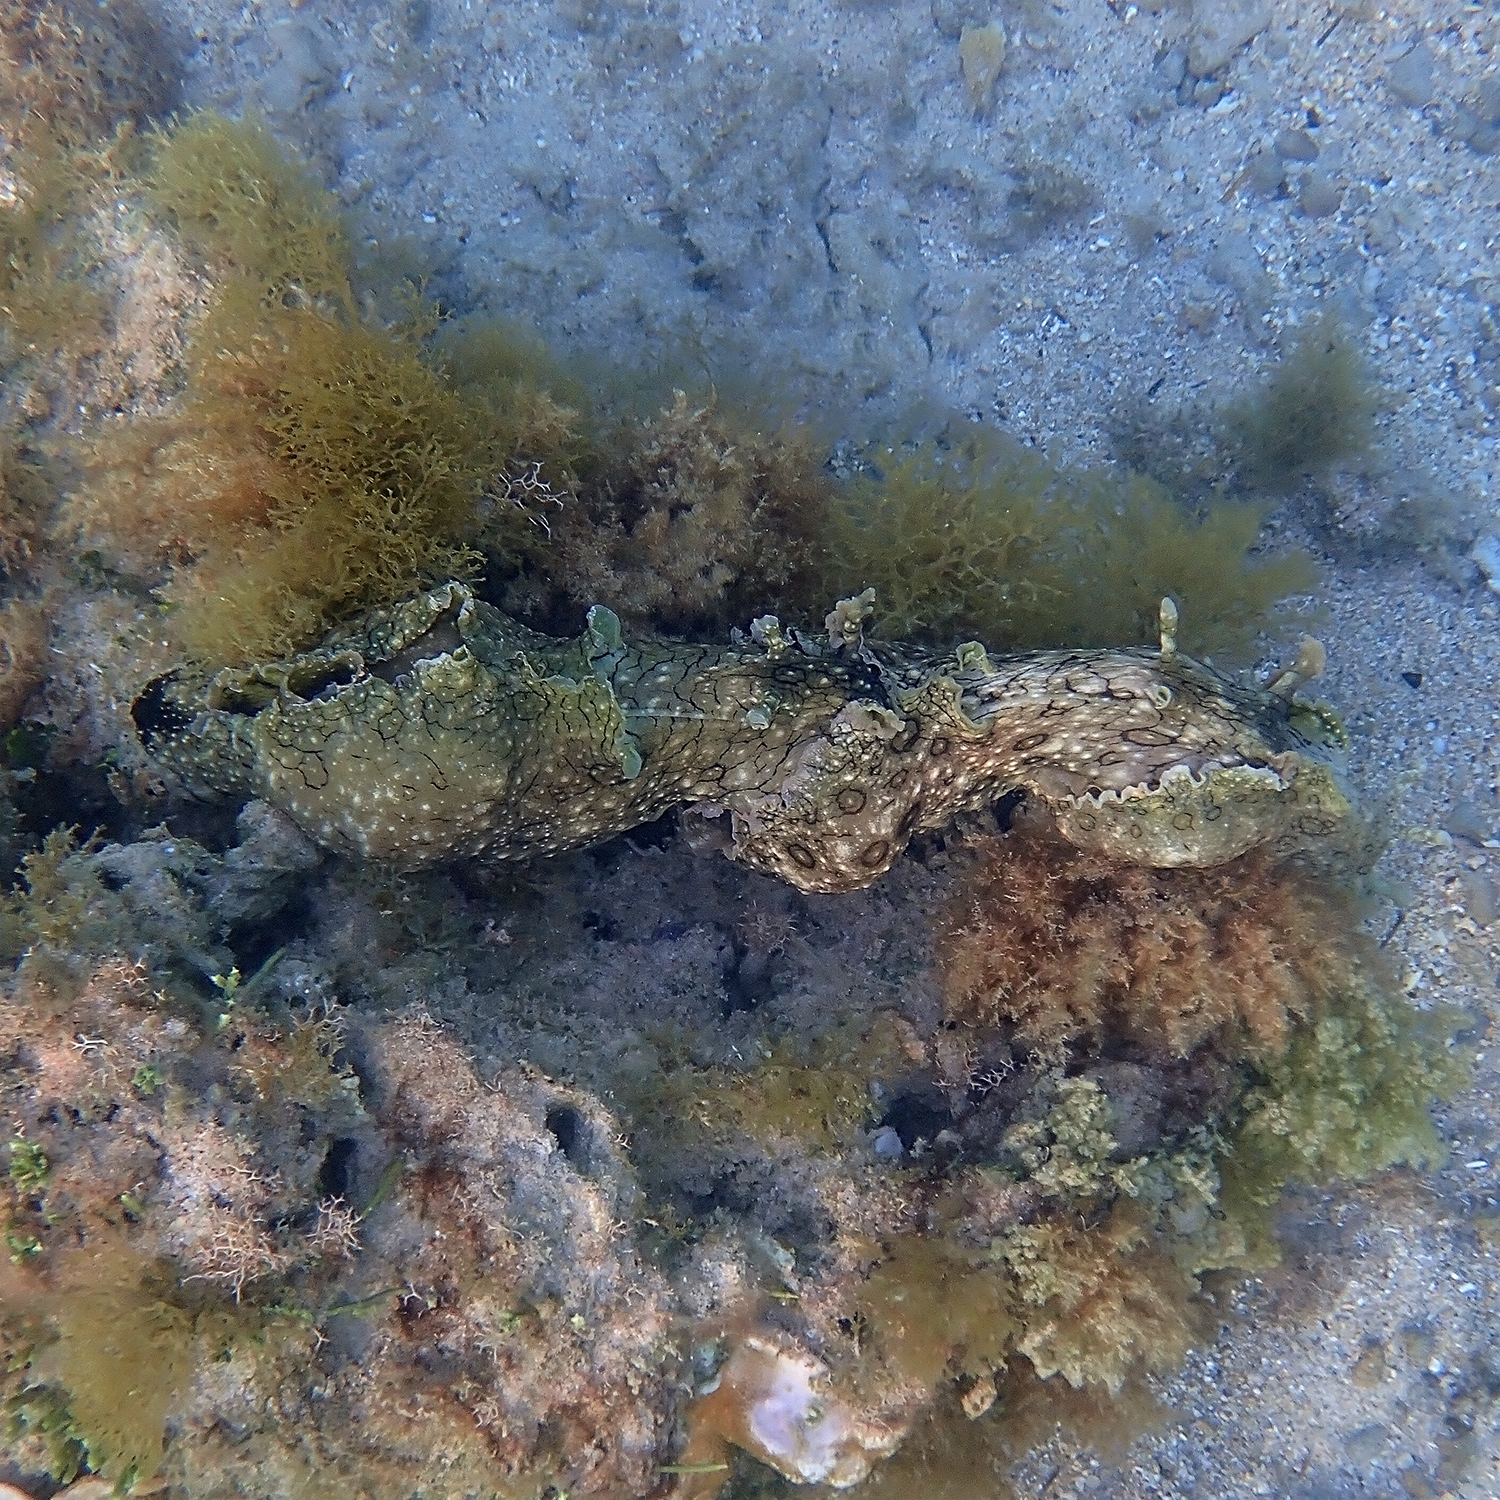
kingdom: Animalia
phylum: Mollusca
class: Gastropoda
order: Aplysiida
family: Aplysiidae
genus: Aplysia
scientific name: Aplysia argus
